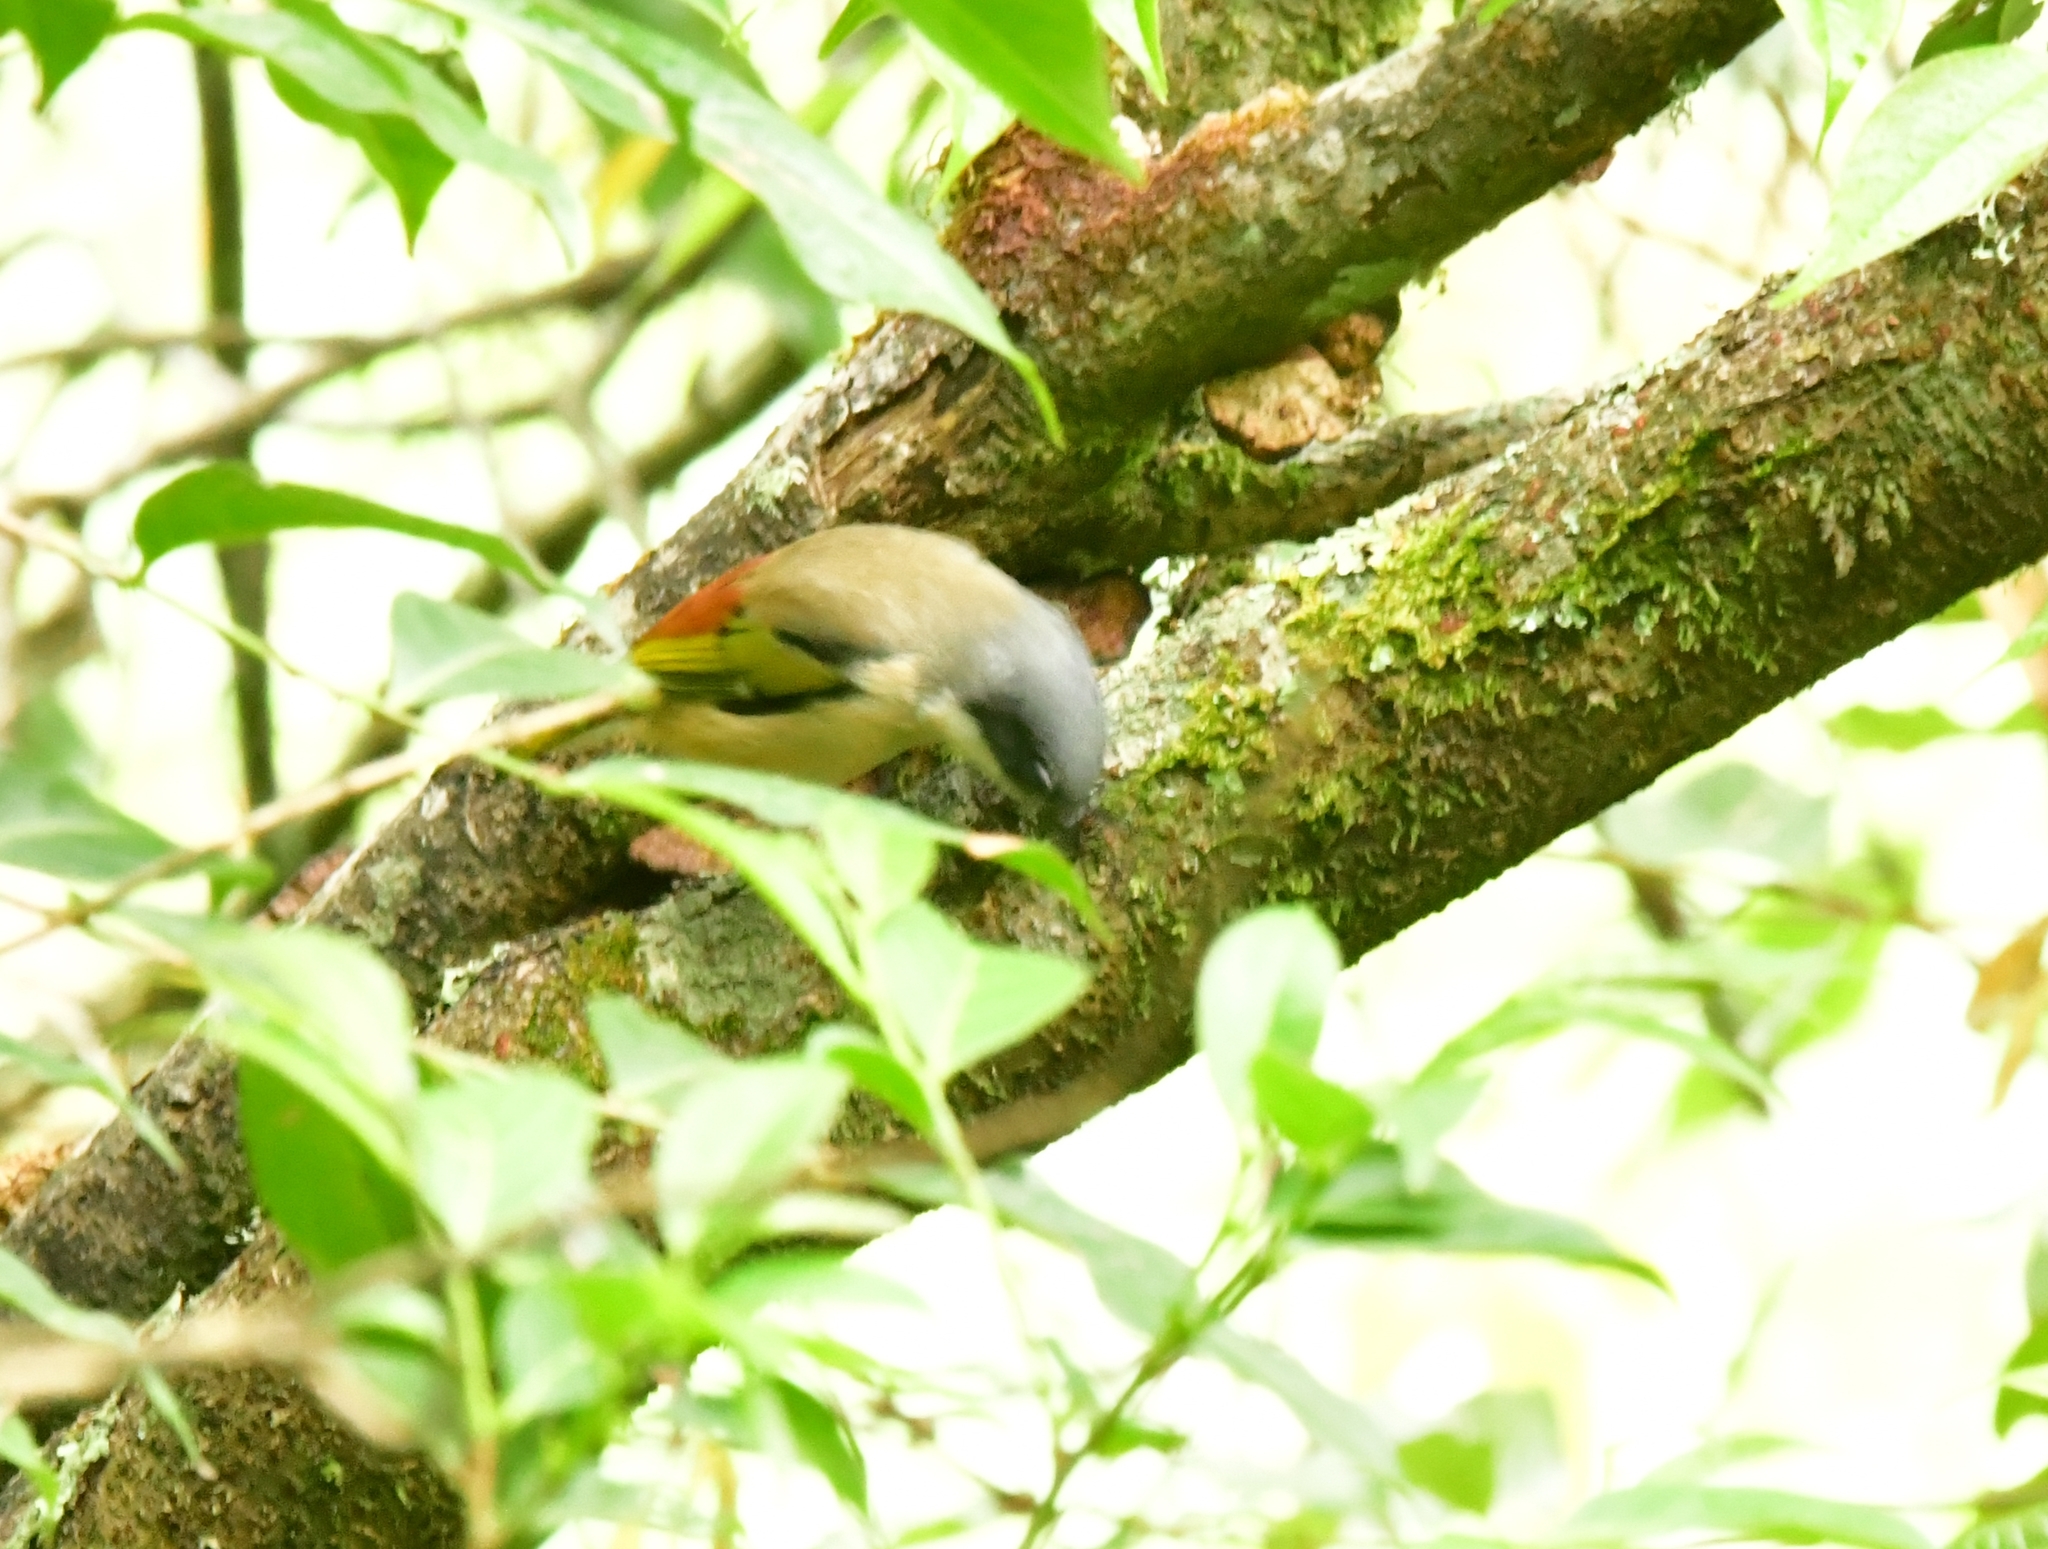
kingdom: Animalia
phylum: Chordata
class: Aves
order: Passeriformes
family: Vireonidae
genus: Pteruthius
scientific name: Pteruthius aeralatus
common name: Blyth's shrike-babbler
